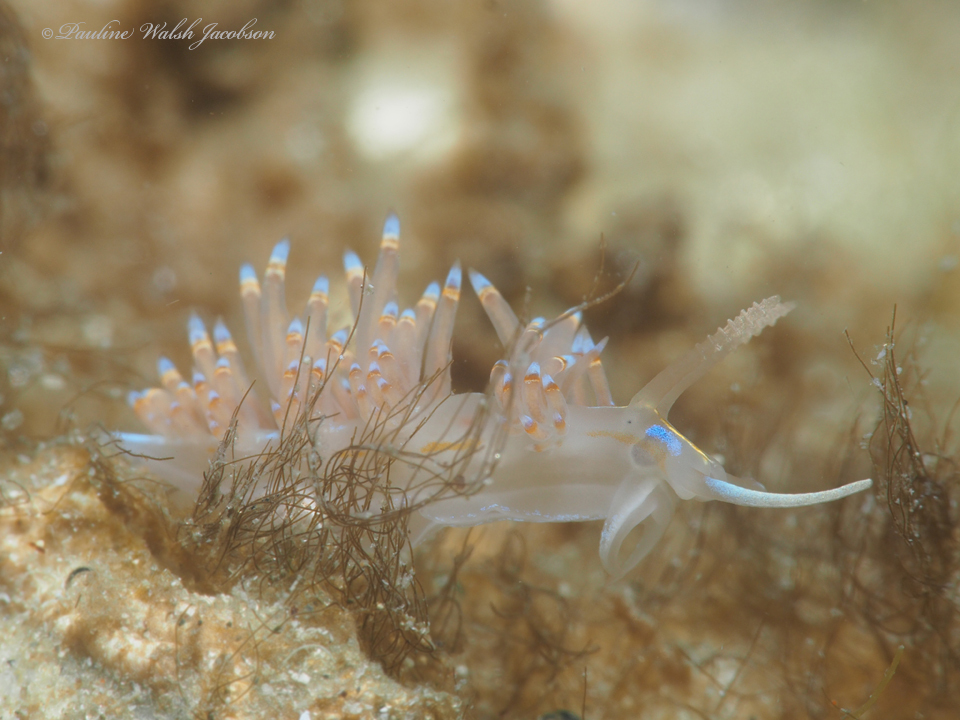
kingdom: Animalia
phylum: Mollusca
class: Gastropoda
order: Nudibranchia
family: Myrrhinidae
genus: Dondice
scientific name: Dondice jupiteriensis
